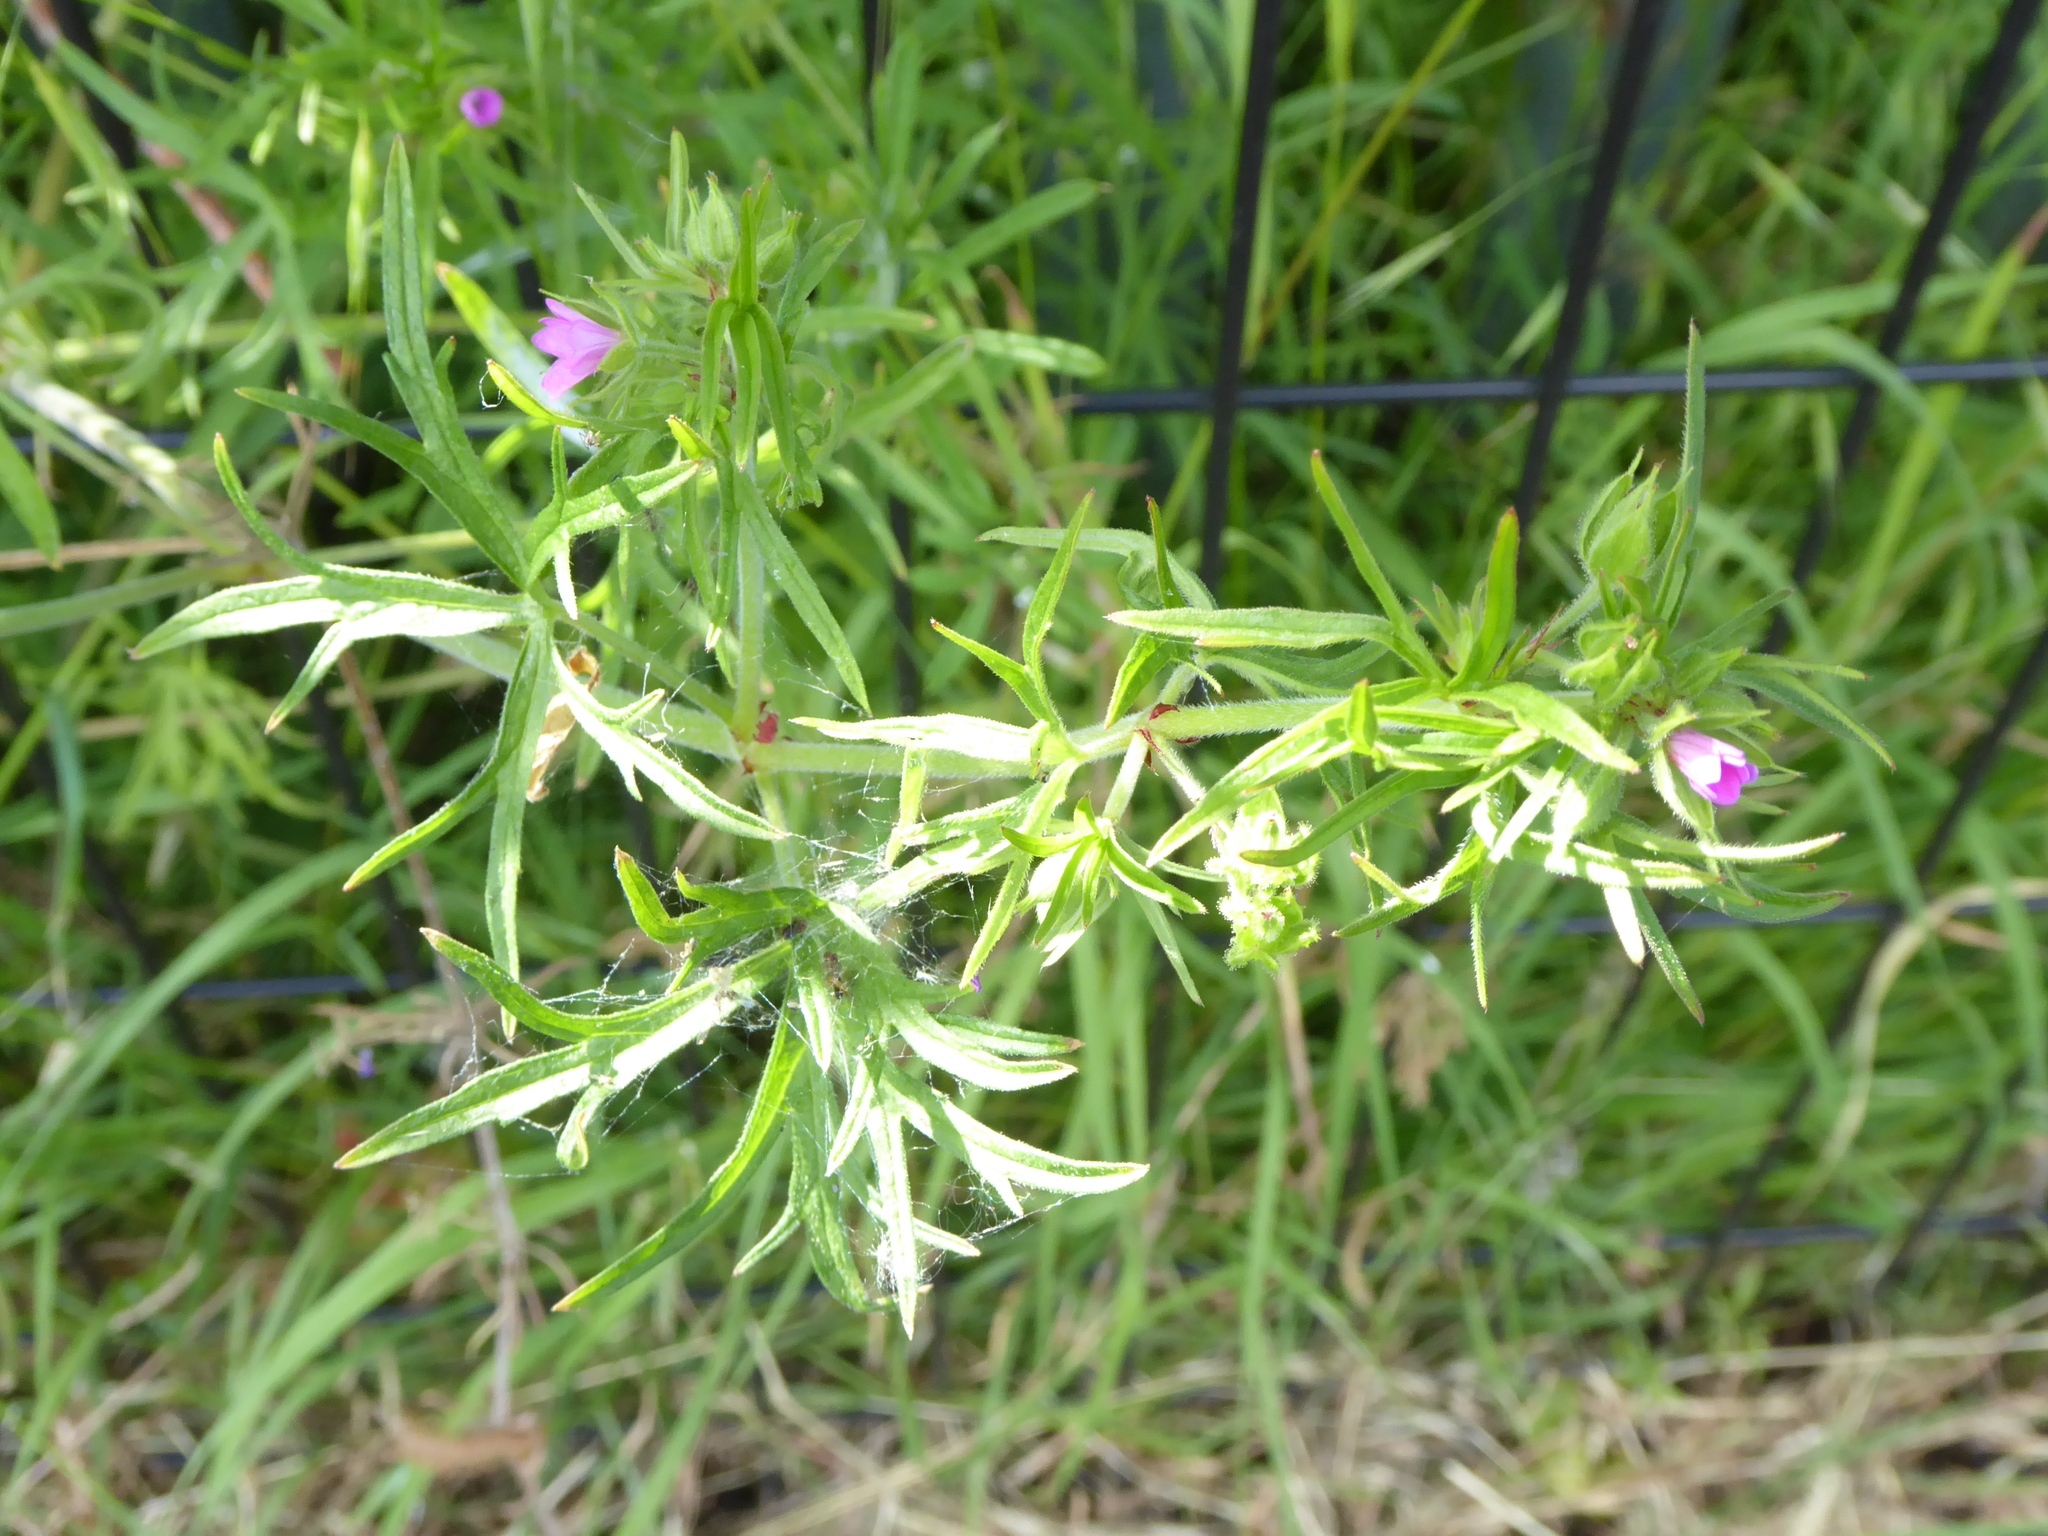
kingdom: Plantae
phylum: Tracheophyta
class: Magnoliopsida
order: Geraniales
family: Geraniaceae
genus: Geranium
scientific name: Geranium dissectum
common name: Cut-leaved crane's-bill
